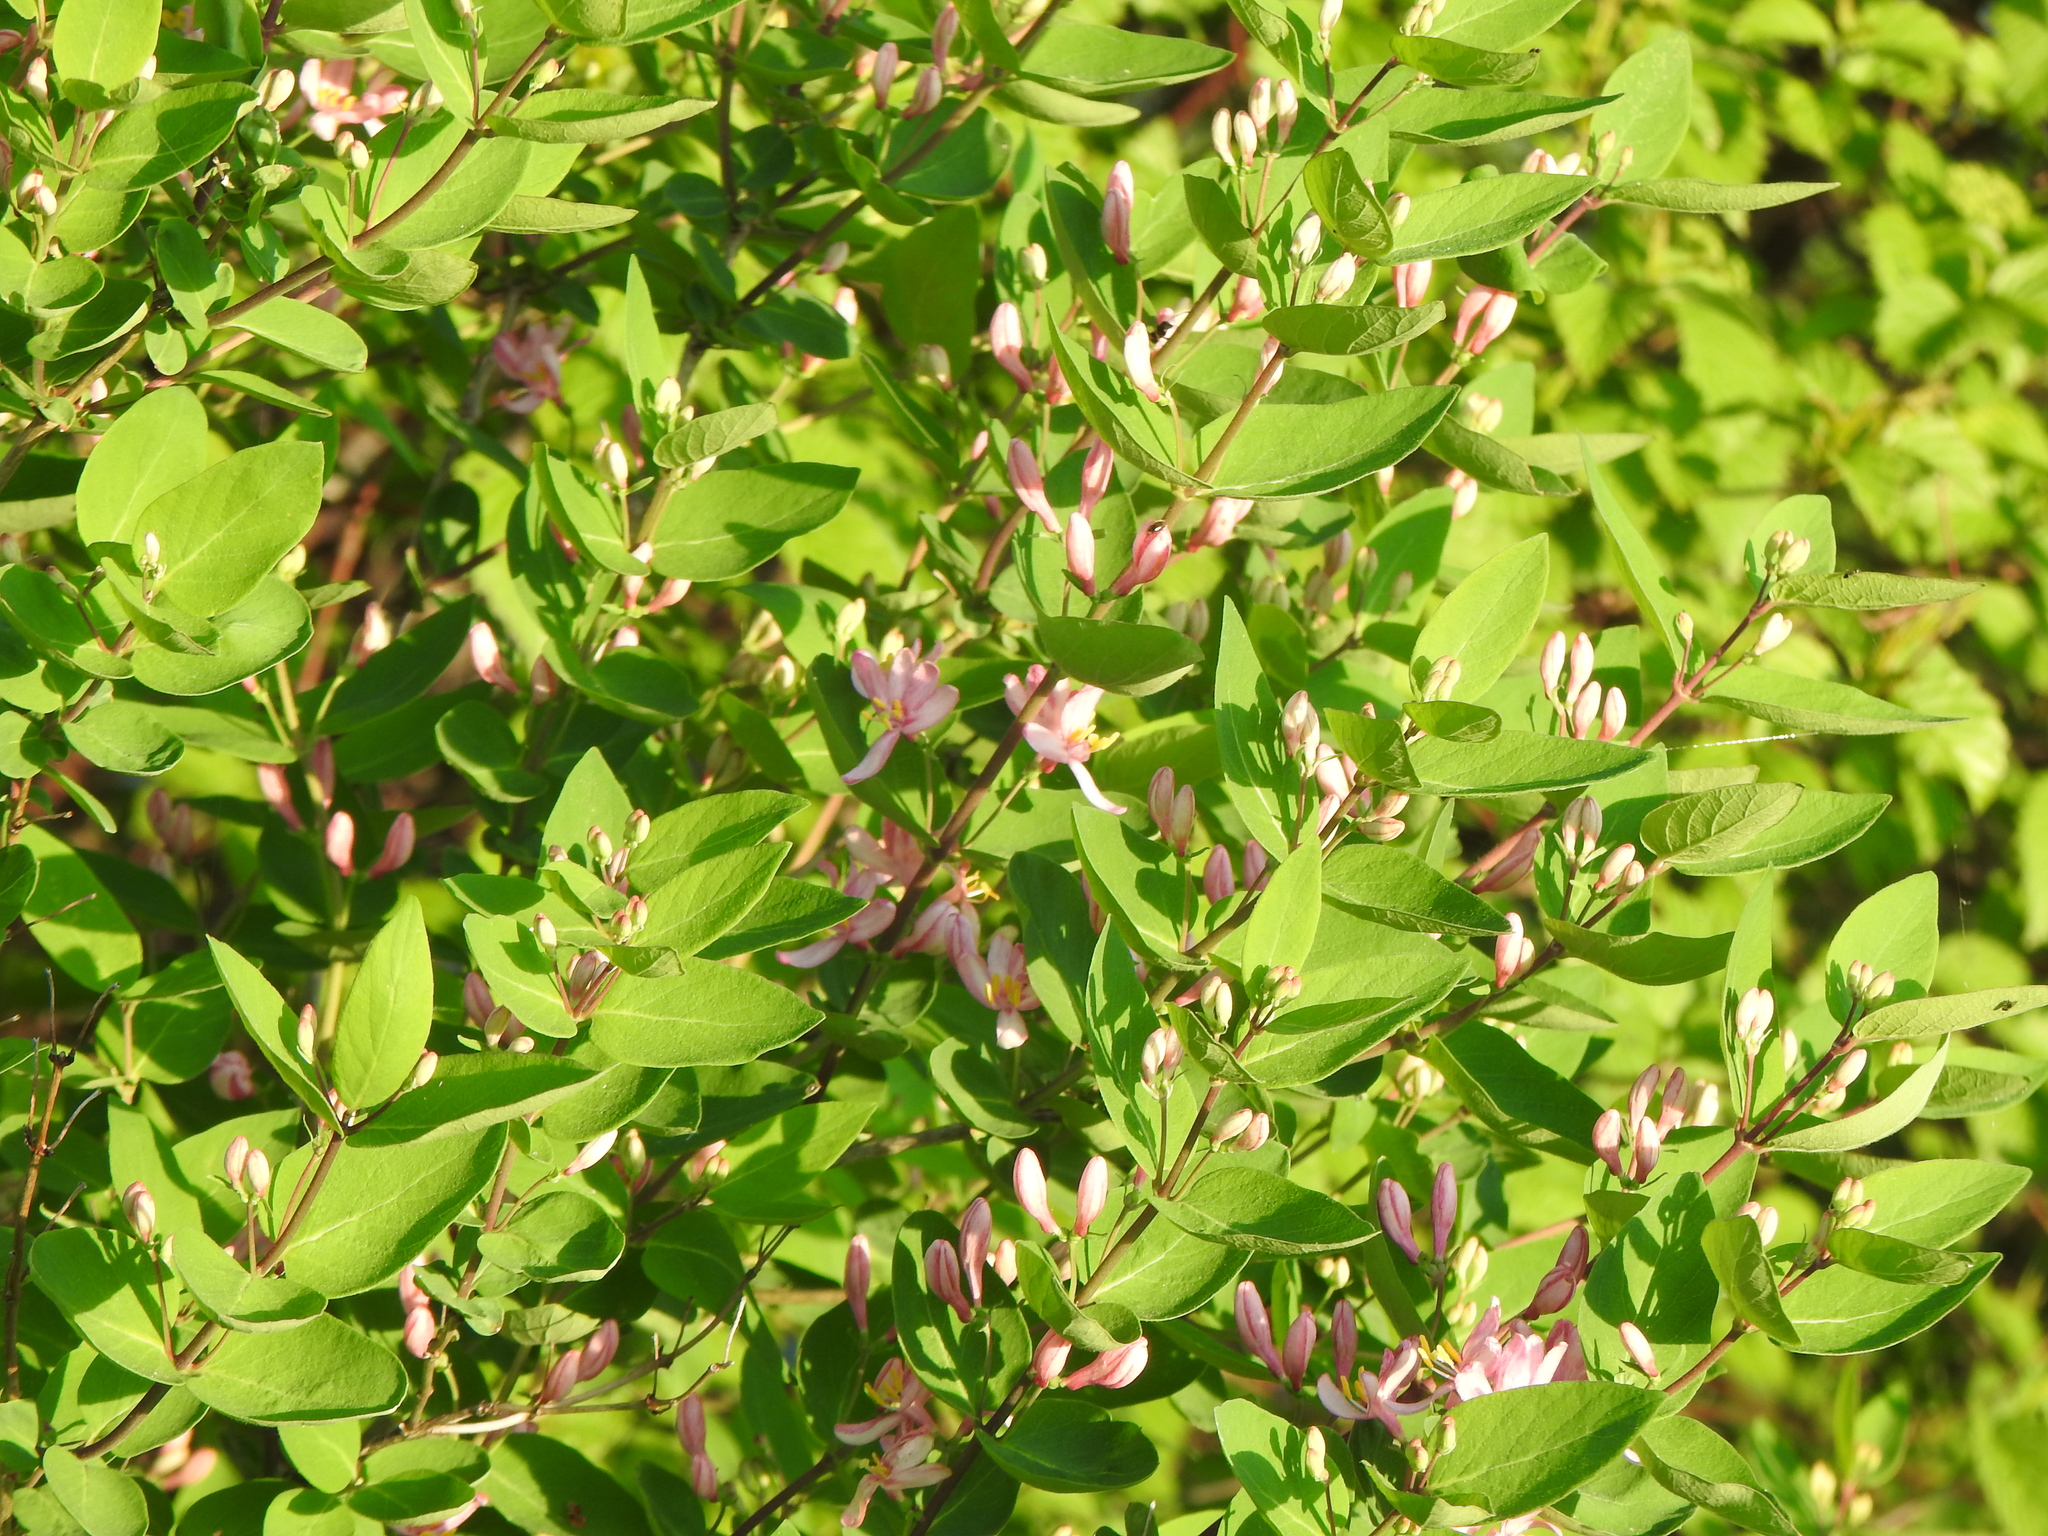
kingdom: Plantae
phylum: Tracheophyta
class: Magnoliopsida
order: Dipsacales
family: Caprifoliaceae
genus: Lonicera
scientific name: Lonicera tatarica
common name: Tatarian honeysuckle
